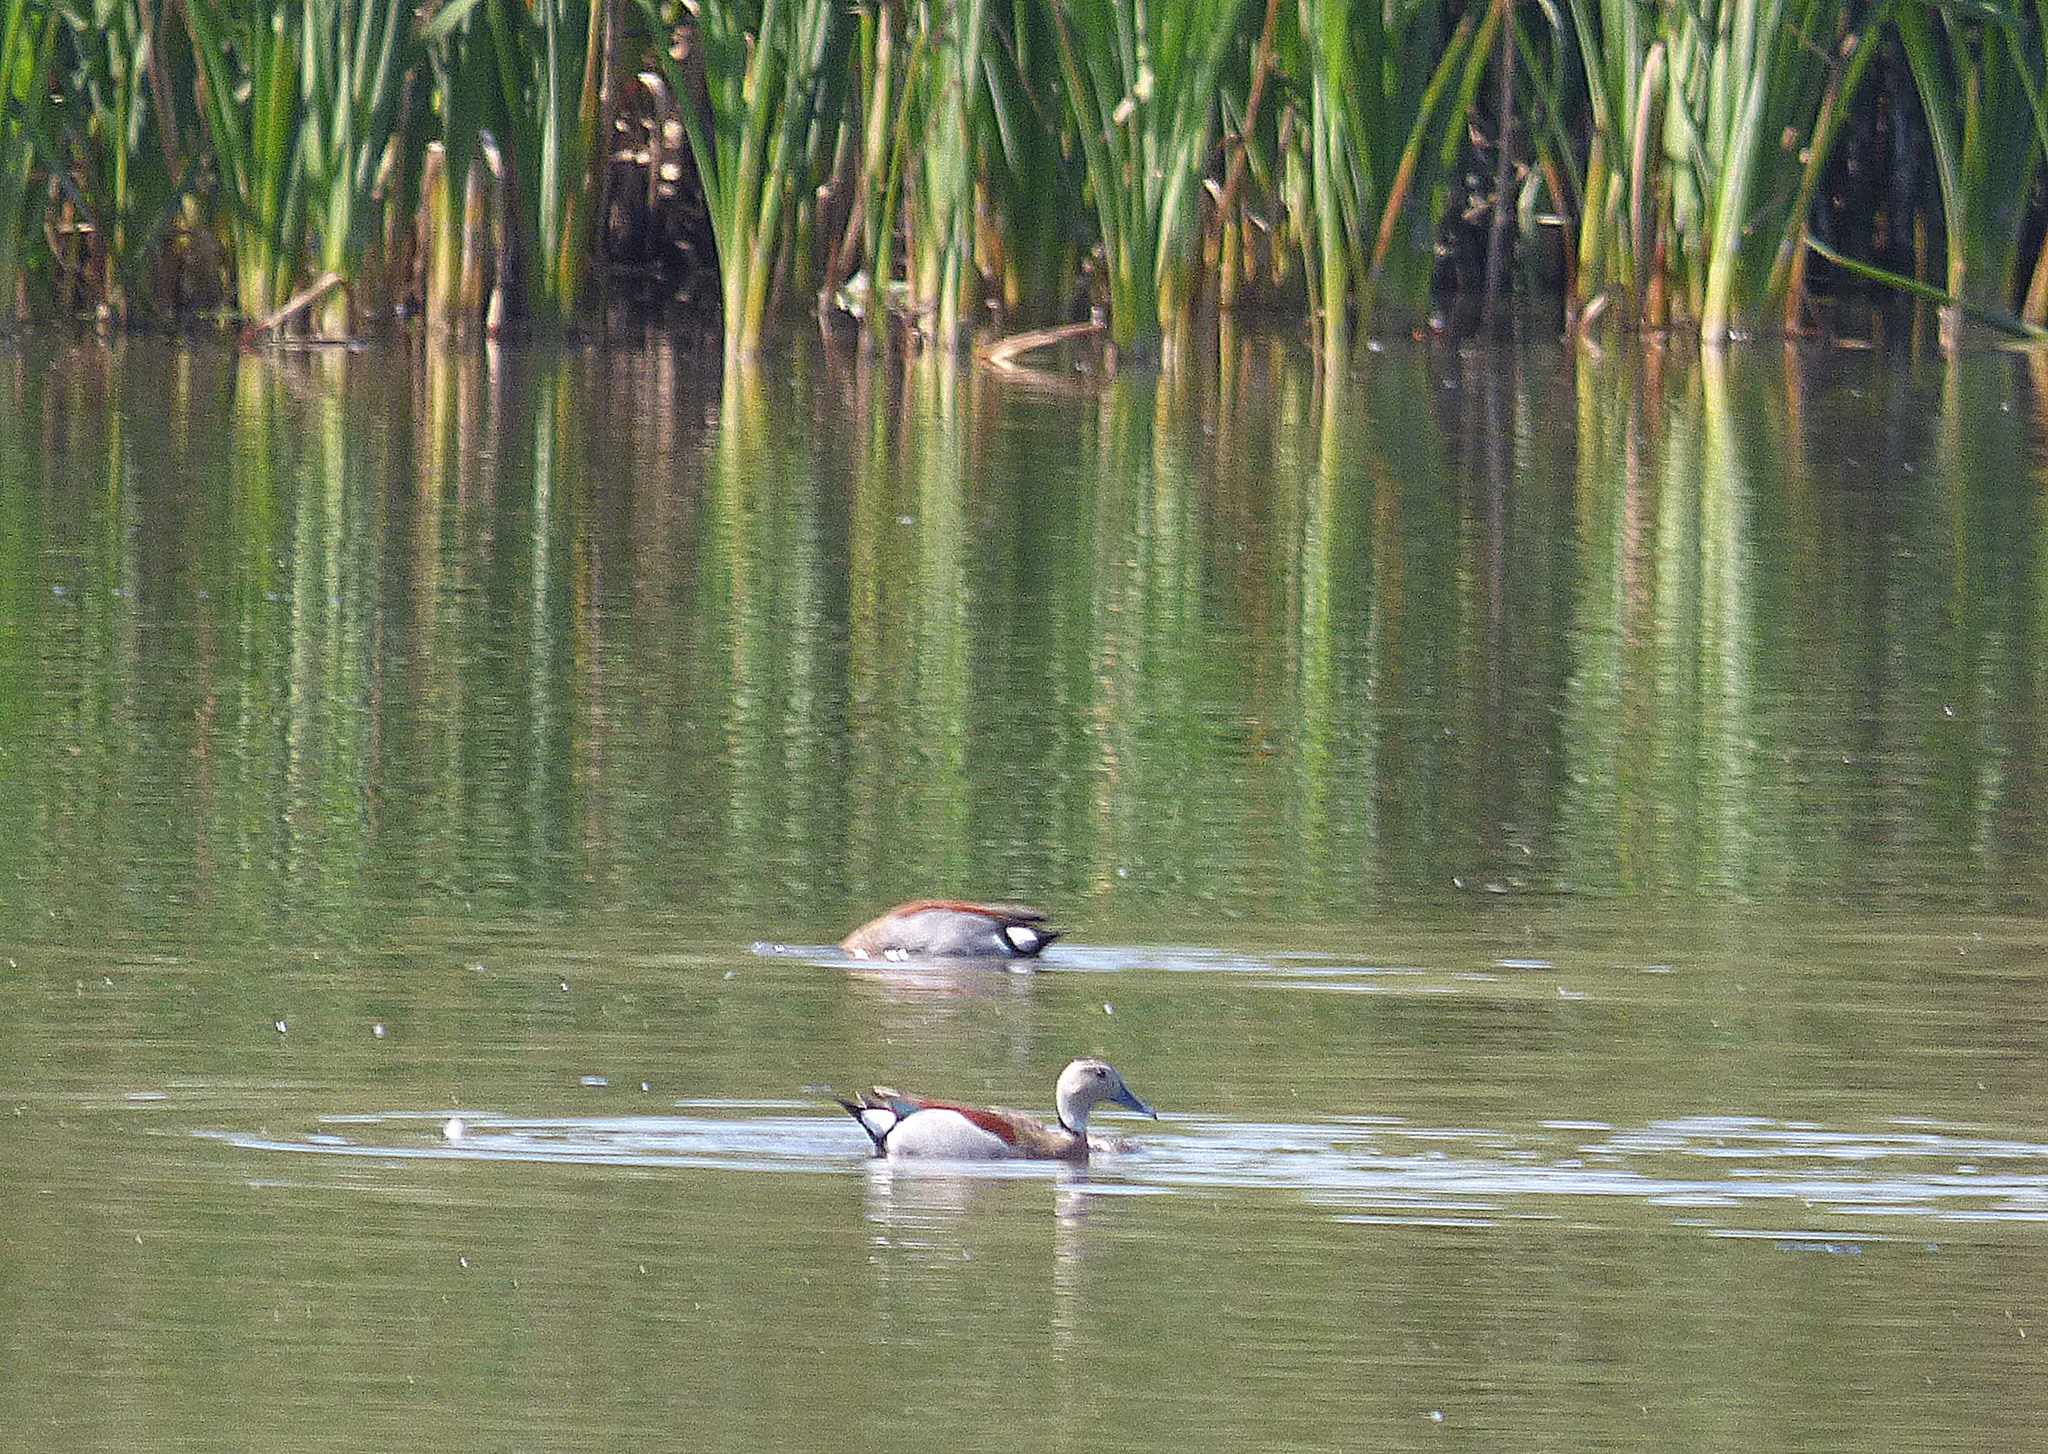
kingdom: Animalia
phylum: Chordata
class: Aves
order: Anseriformes
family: Anatidae
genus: Callonetta
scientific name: Callonetta leucophrys
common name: Ringed teal
